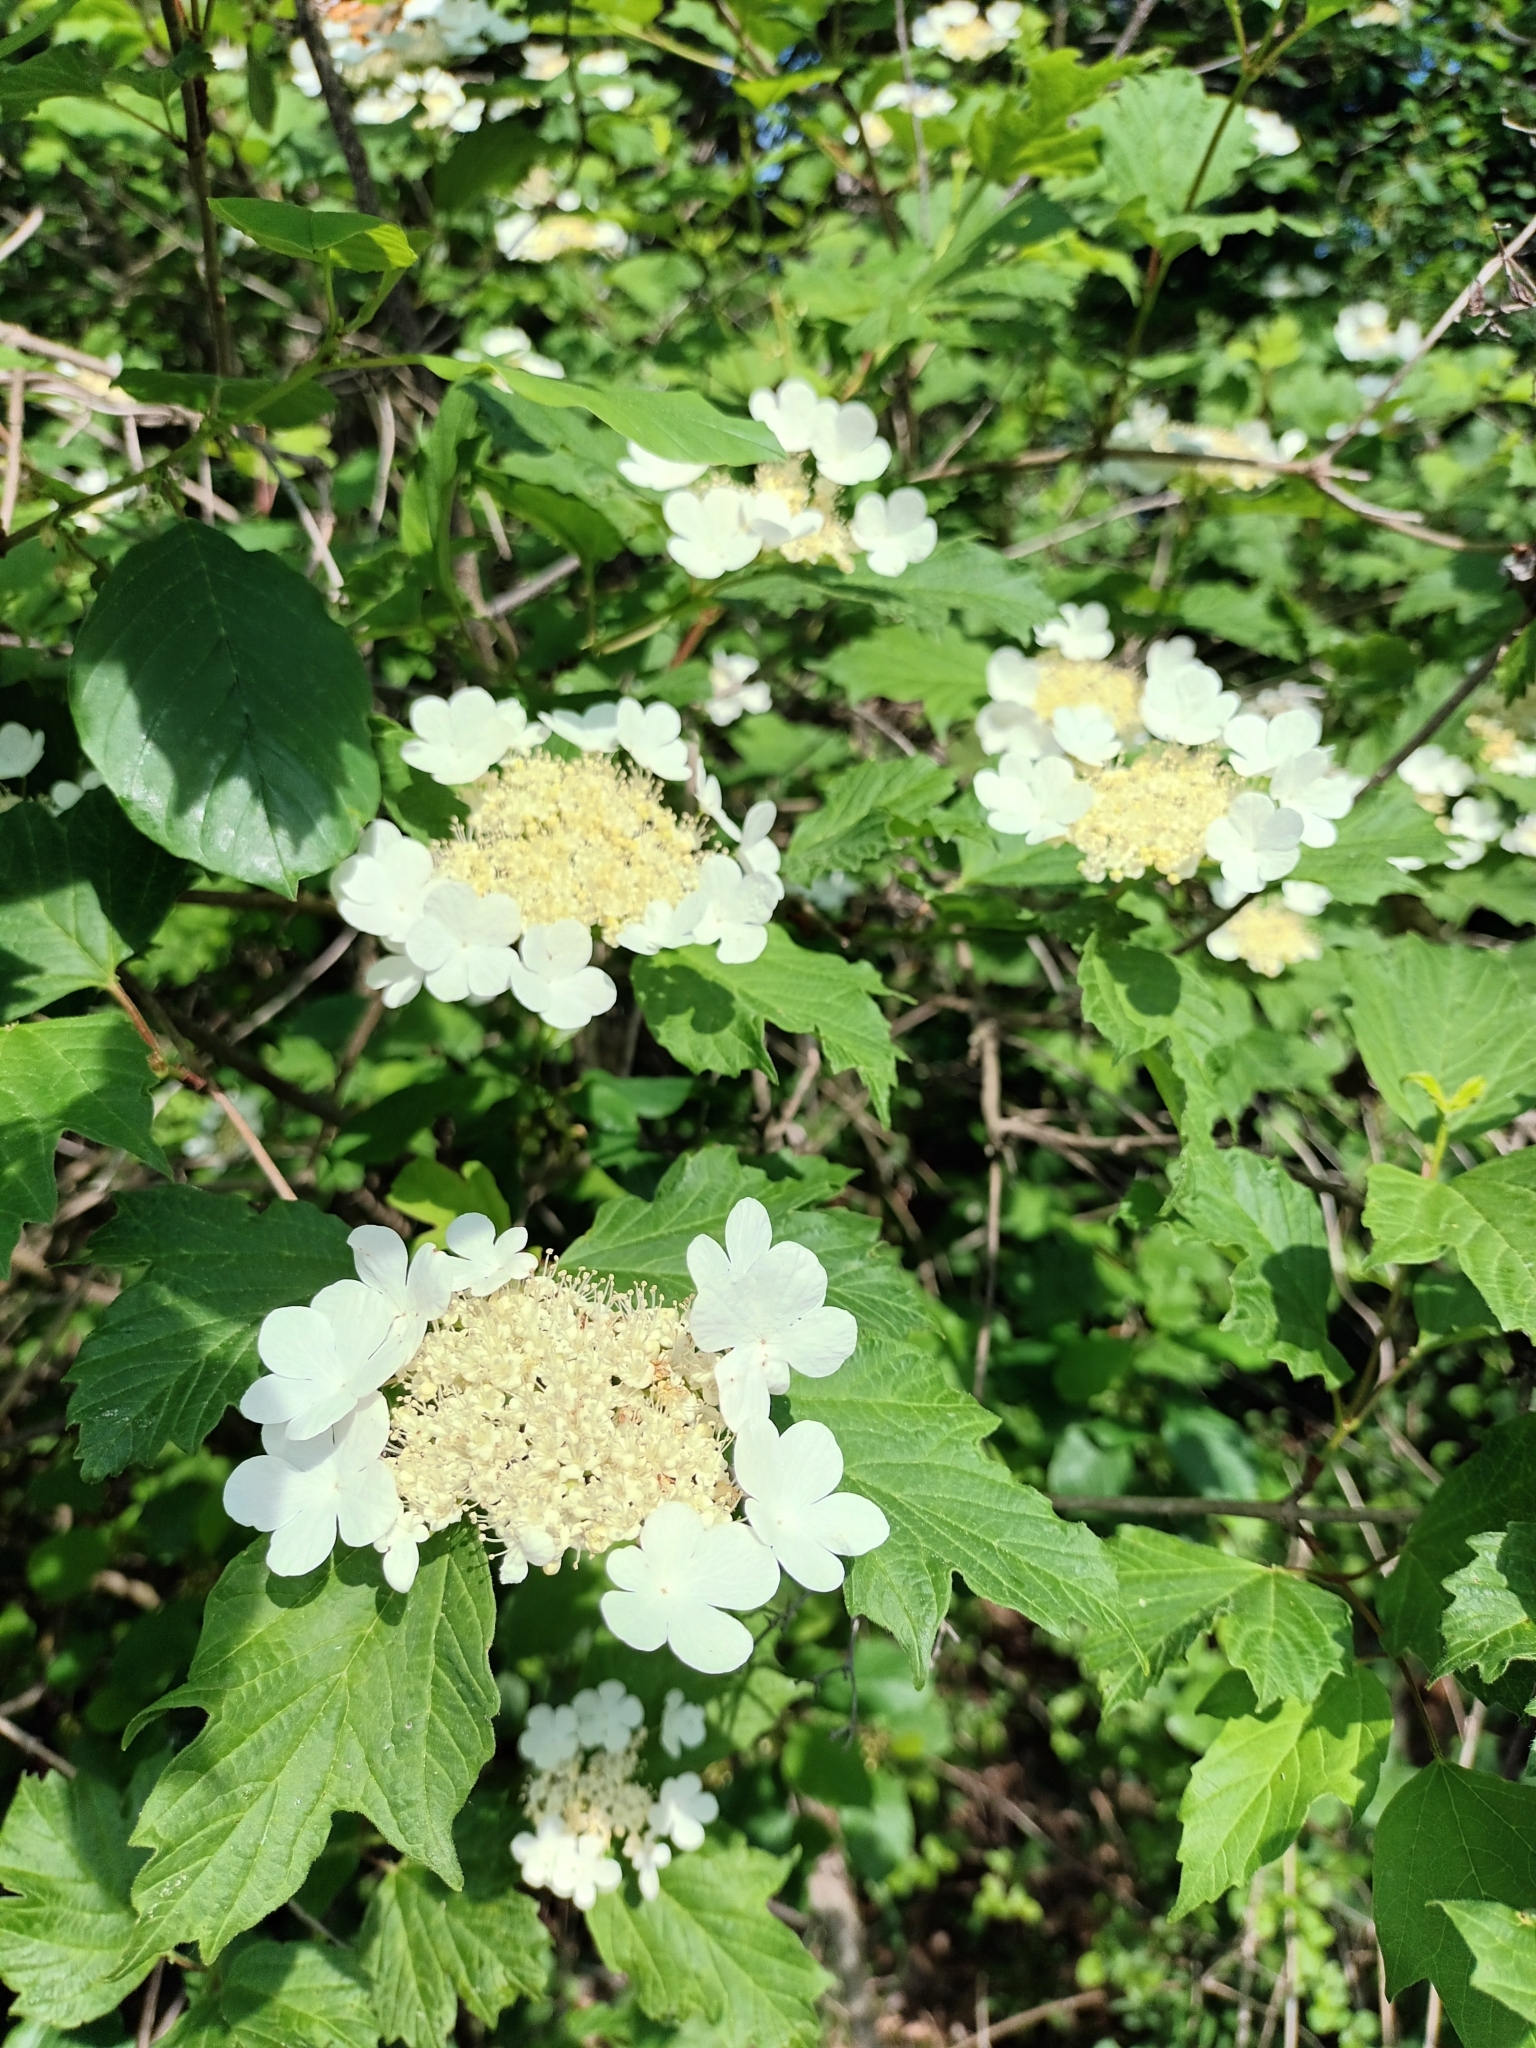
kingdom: Plantae
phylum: Tracheophyta
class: Magnoliopsida
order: Dipsacales
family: Viburnaceae
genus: Viburnum
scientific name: Viburnum opulus
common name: Guelder-rose
